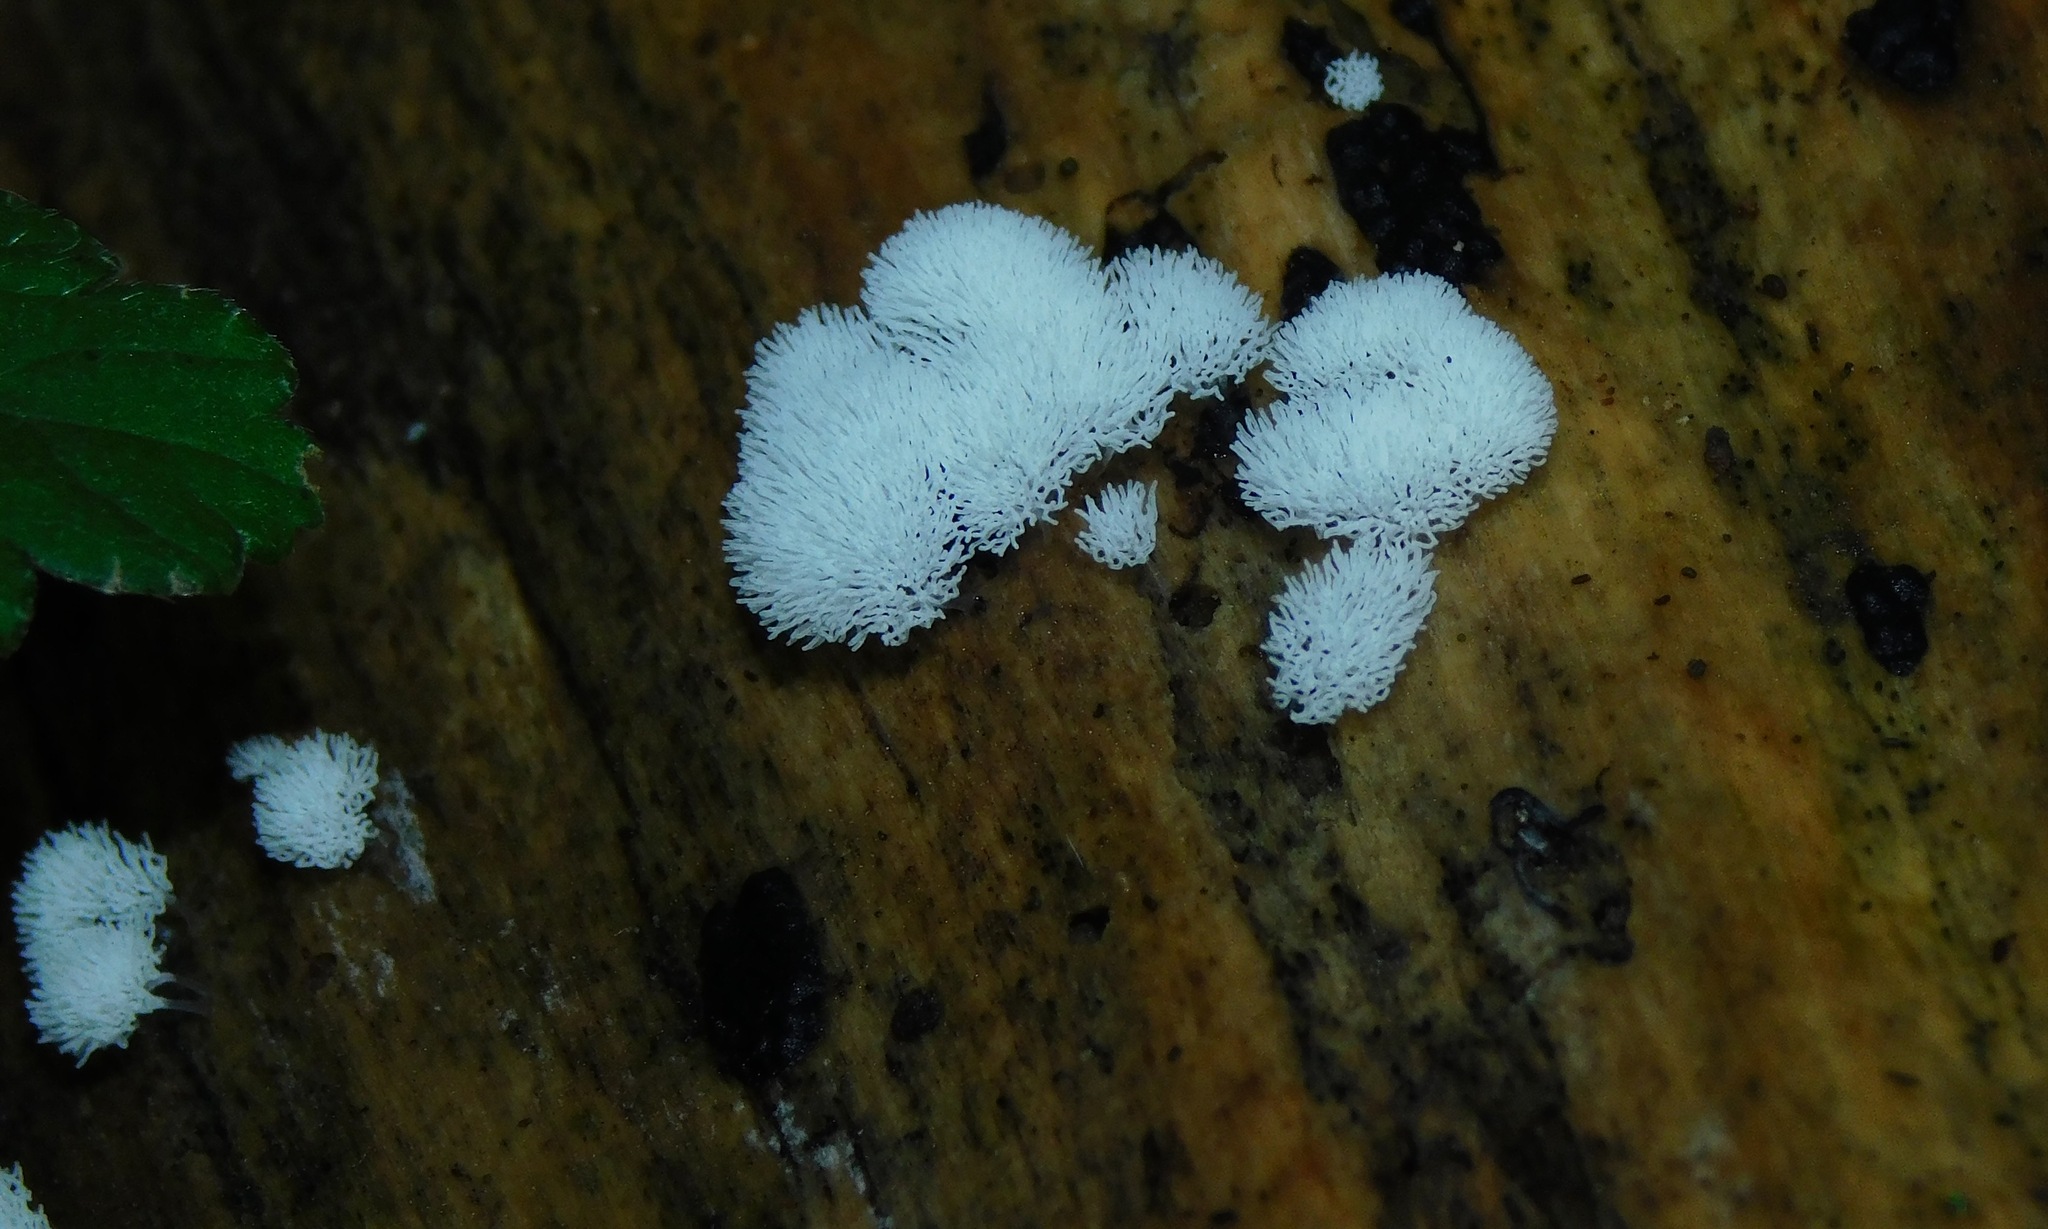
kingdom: Protozoa
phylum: Mycetozoa
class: Protosteliomycetes
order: Ceratiomyxales
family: Ceratiomyxaceae
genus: Ceratiomyxa
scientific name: Ceratiomyxa fruticulosa
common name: Honeycomb coral slime mold
